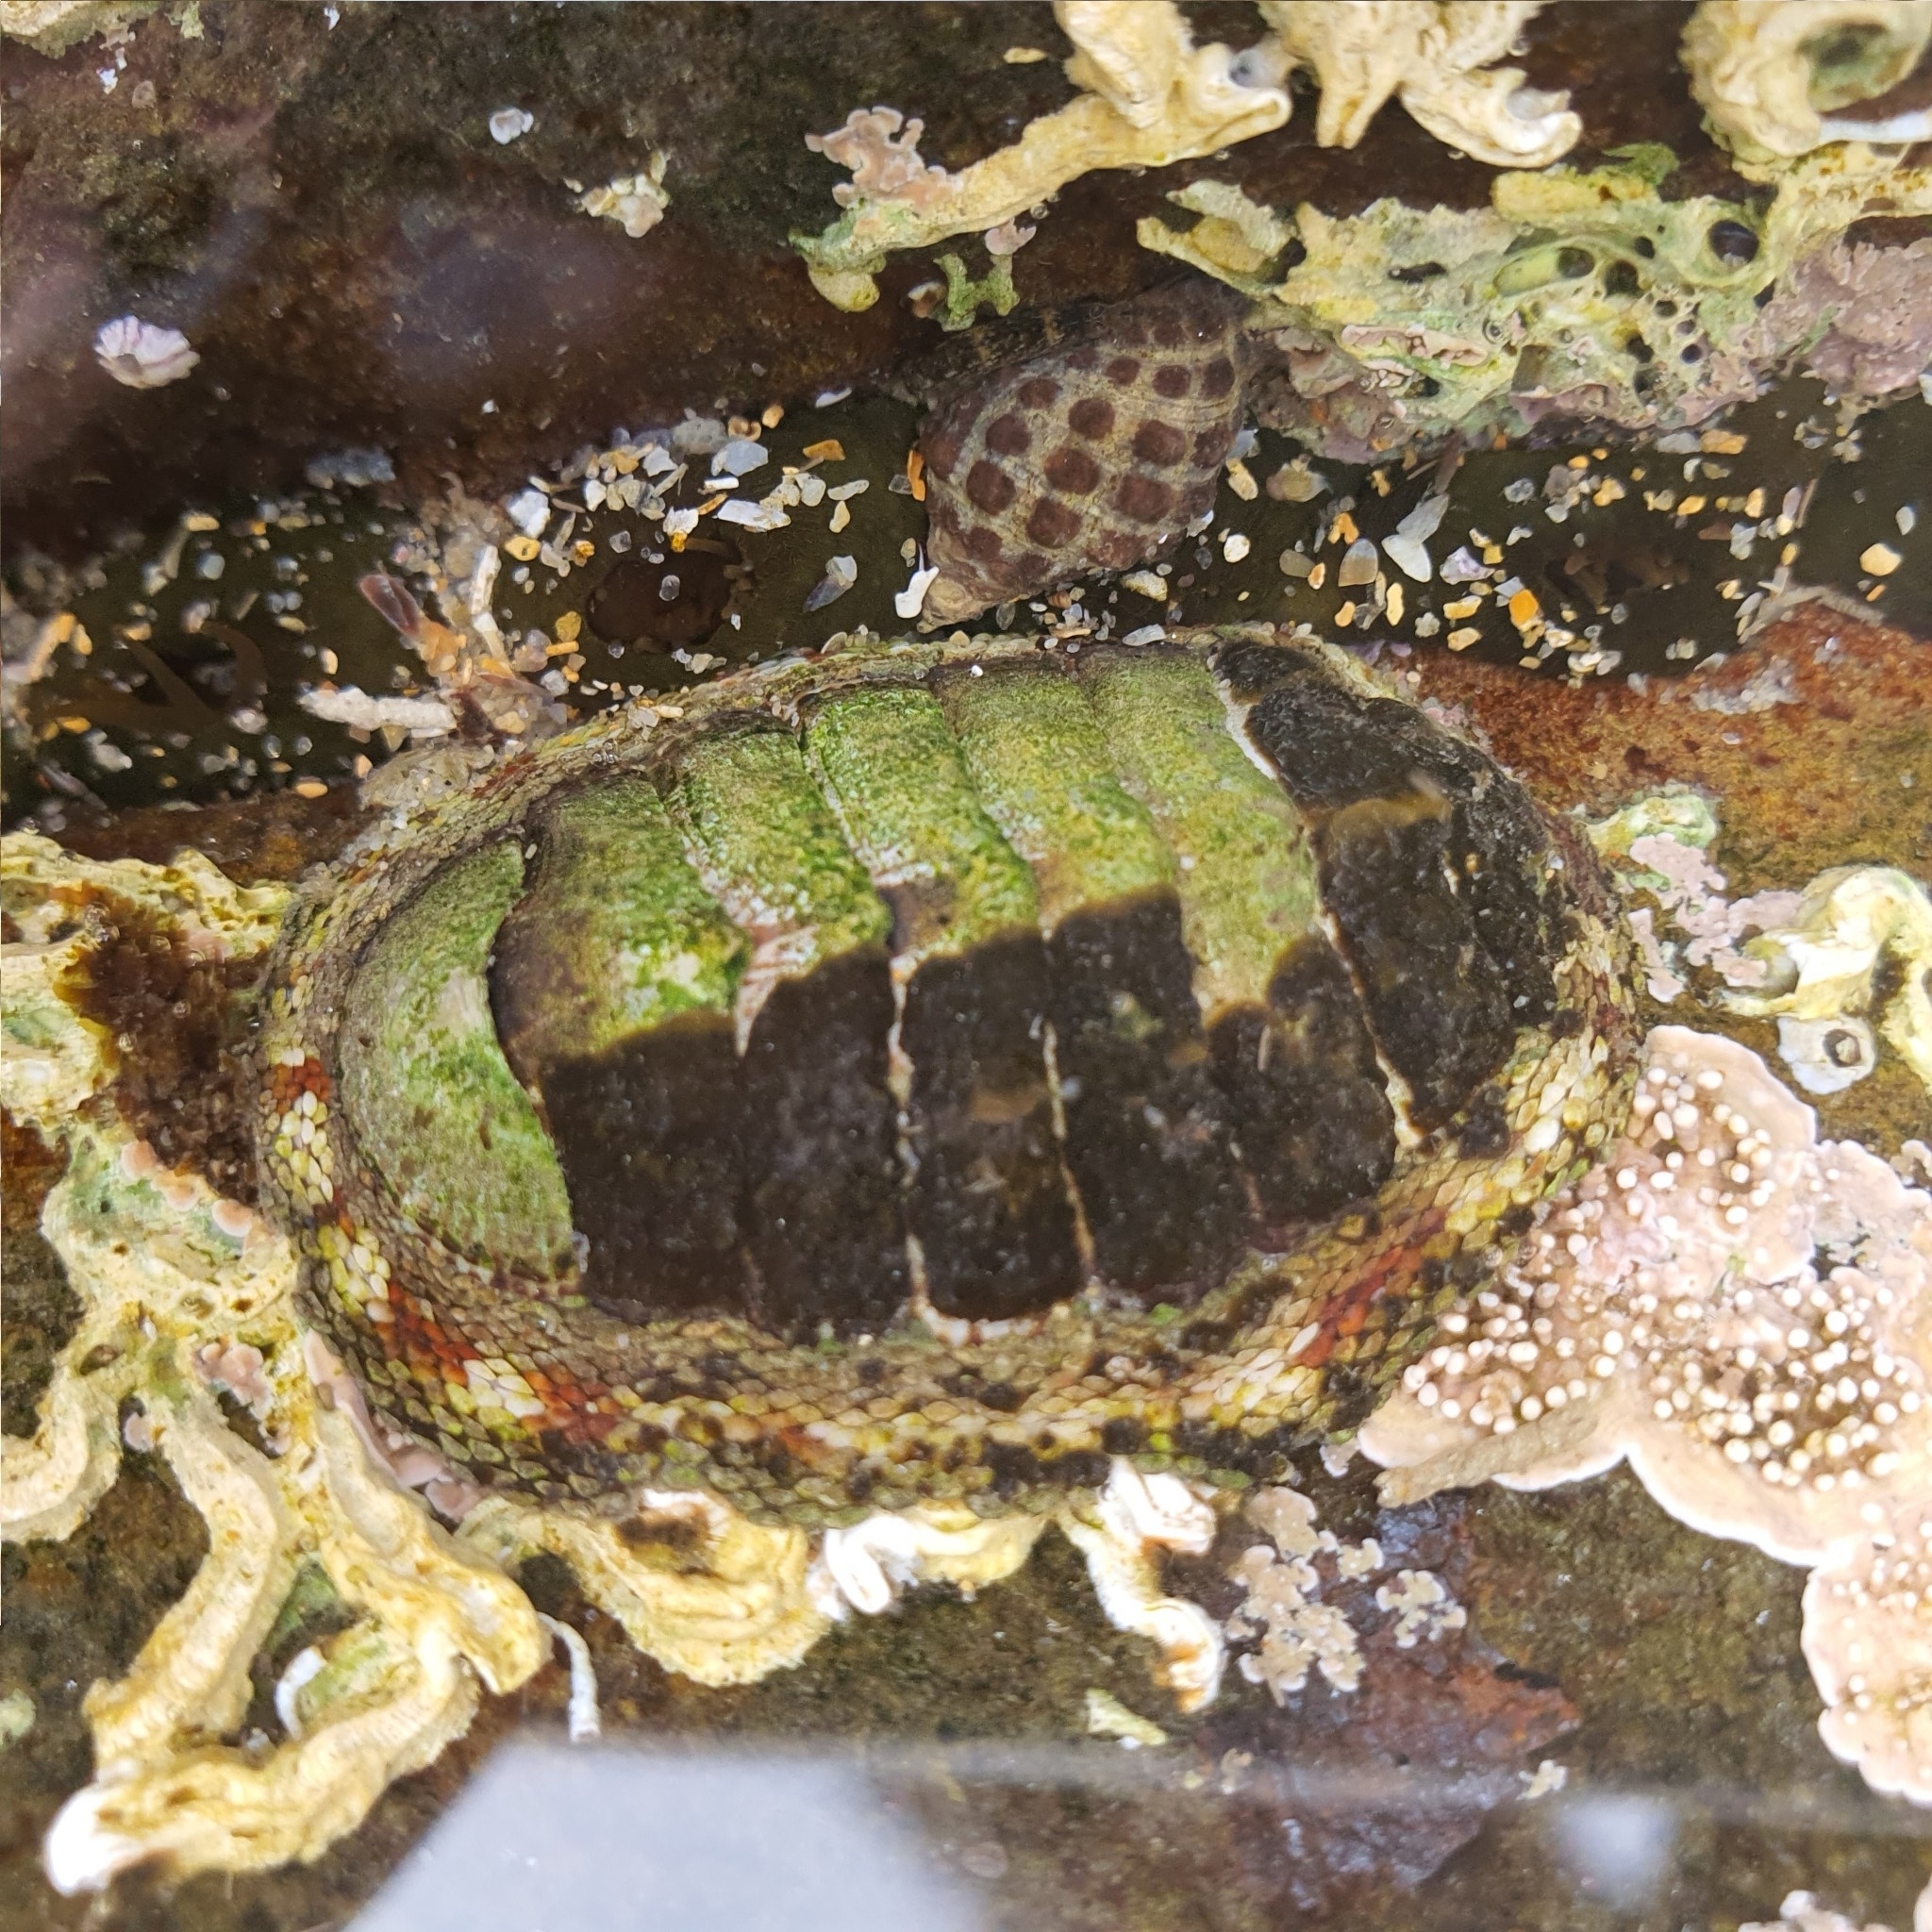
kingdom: Animalia
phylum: Mollusca
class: Polyplacophora
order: Chitonida
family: Chitonidae
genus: Sypharochiton
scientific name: Sypharochiton pelliserpentis
